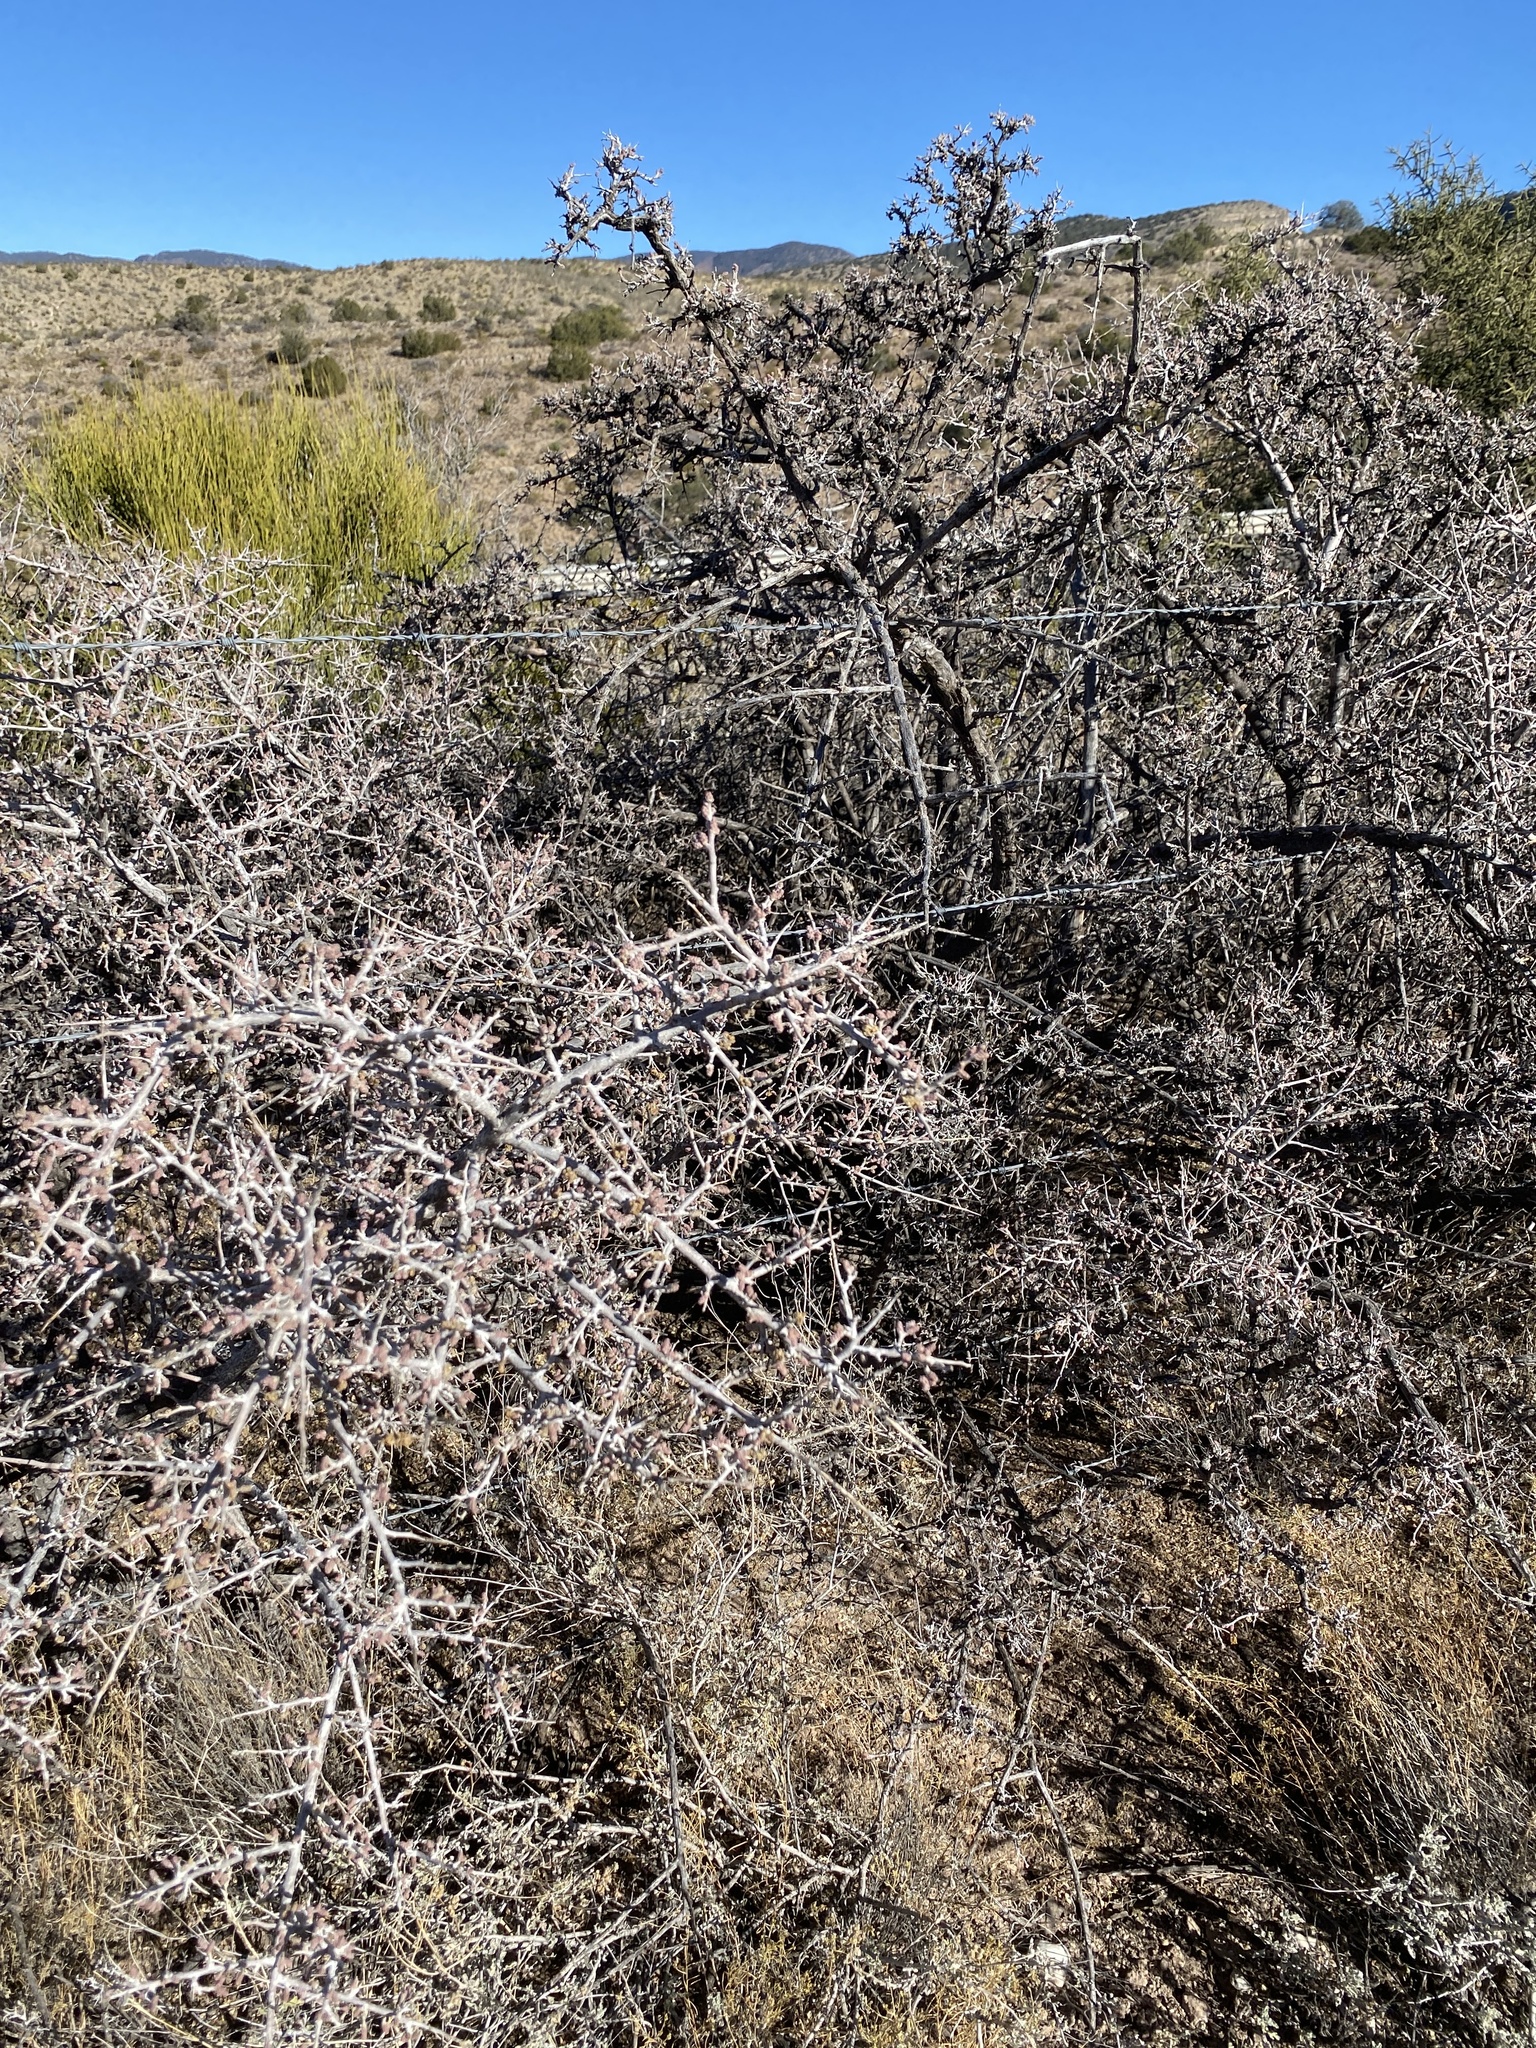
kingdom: Plantae
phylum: Tracheophyta
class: Magnoliopsida
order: Sapindales
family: Anacardiaceae
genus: Rhus
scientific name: Rhus microphylla
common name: Desert sumac
